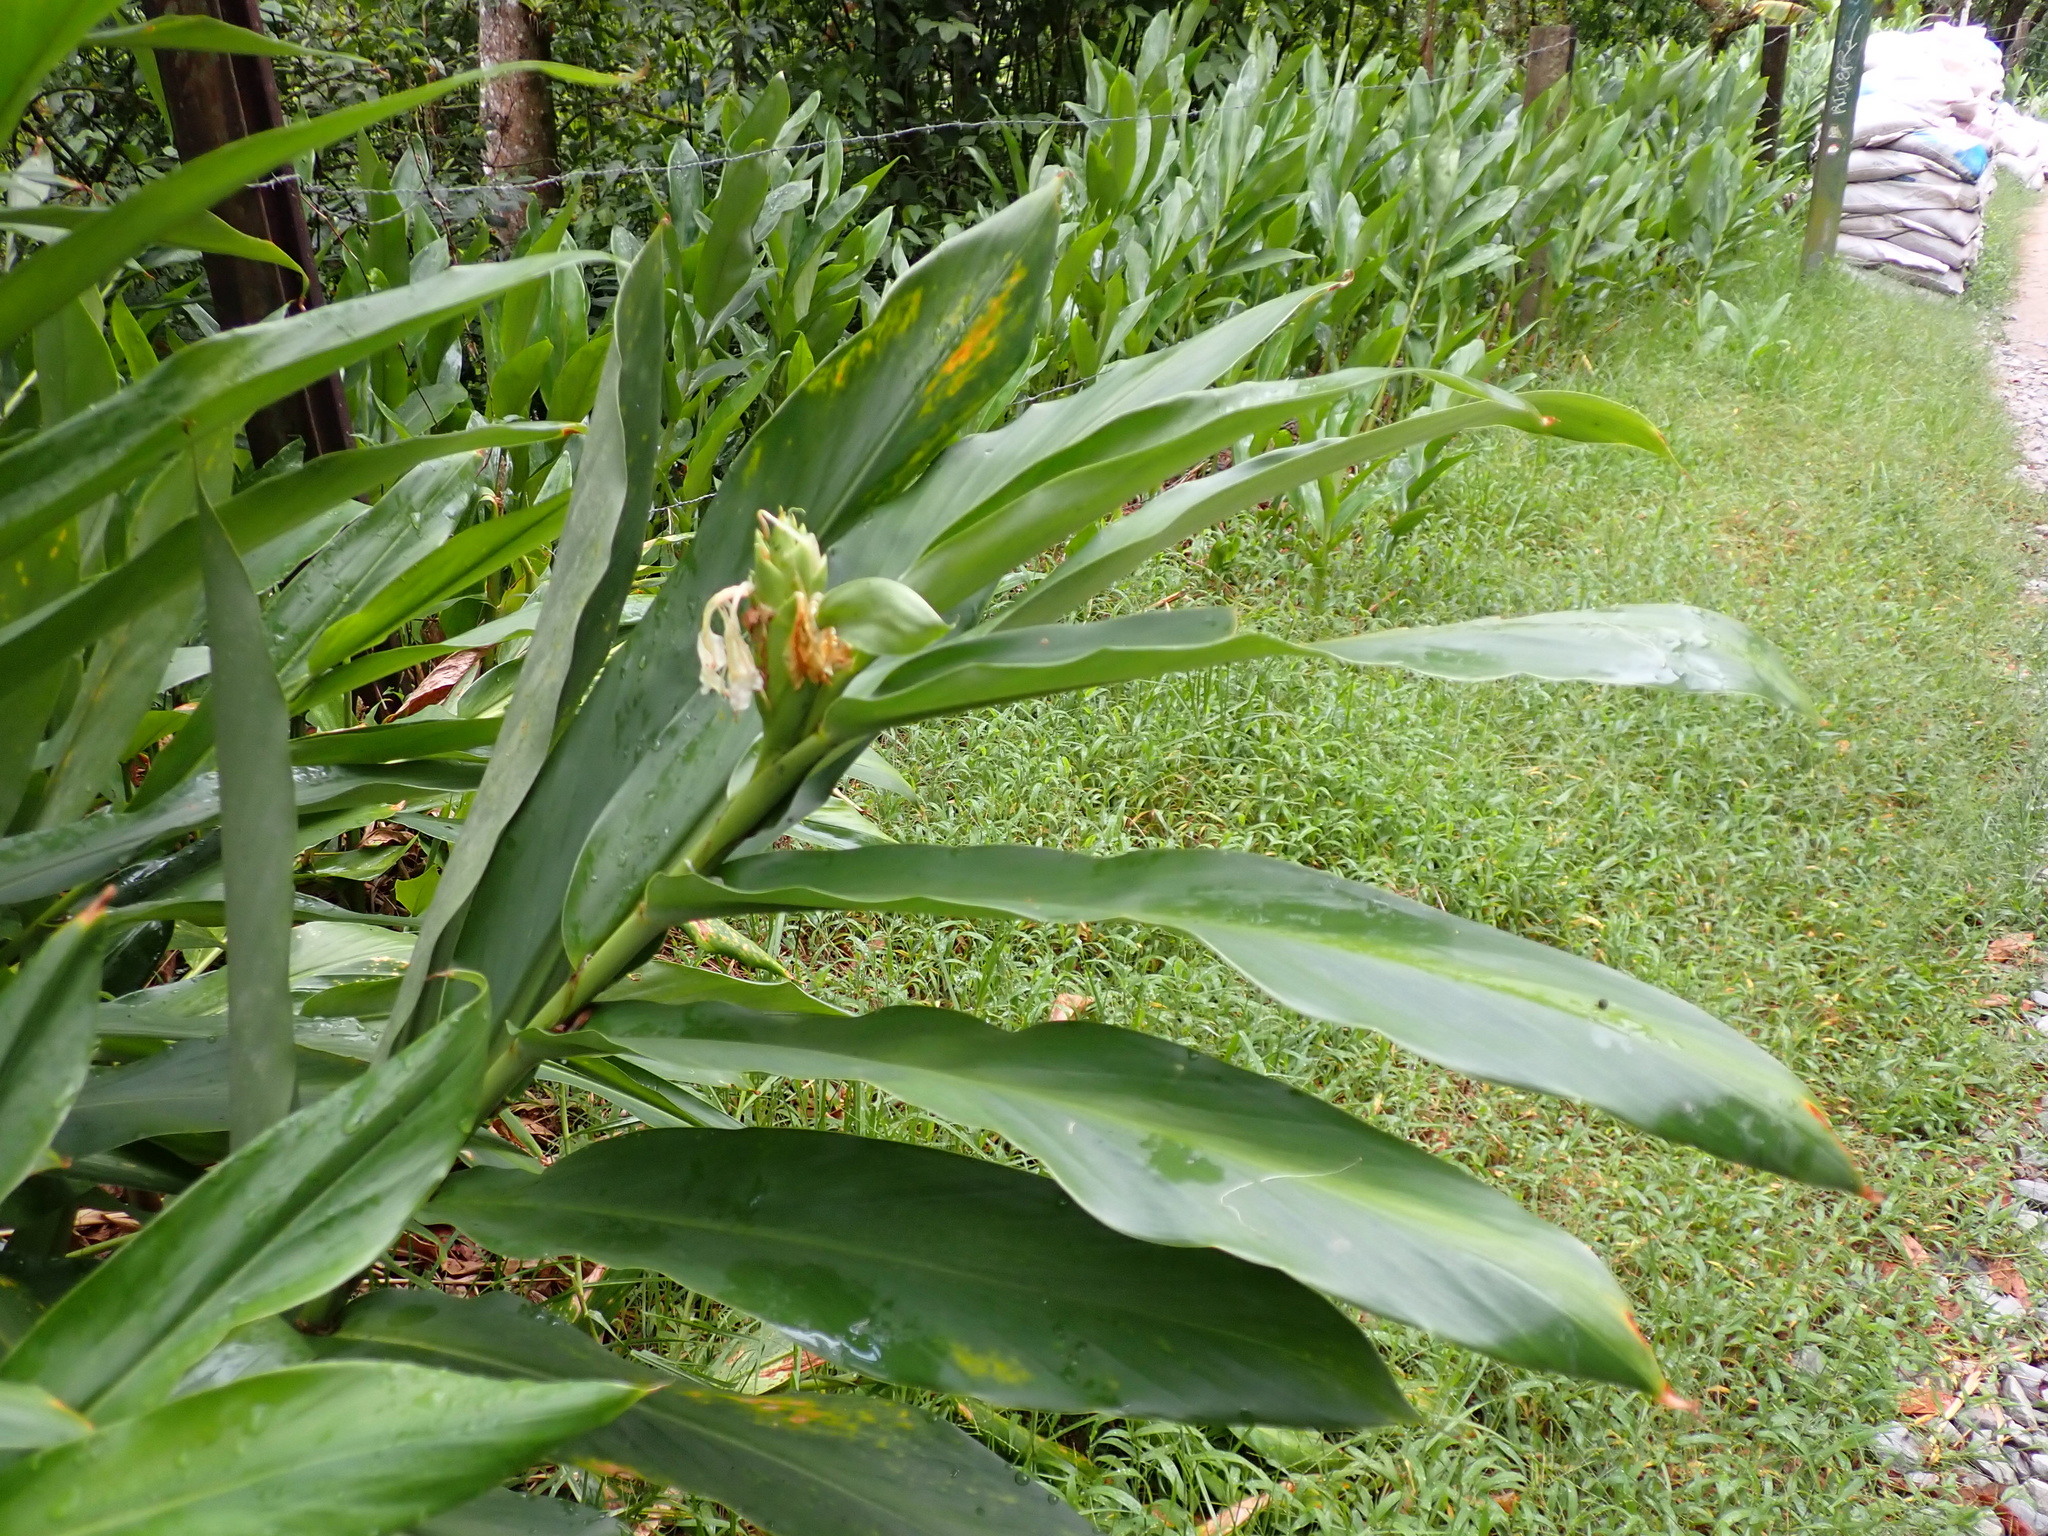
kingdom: Plantae
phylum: Tracheophyta
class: Liliopsida
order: Zingiberales
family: Zingiberaceae
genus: Hedychium
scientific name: Hedychium coronarium
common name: White garland-lily
